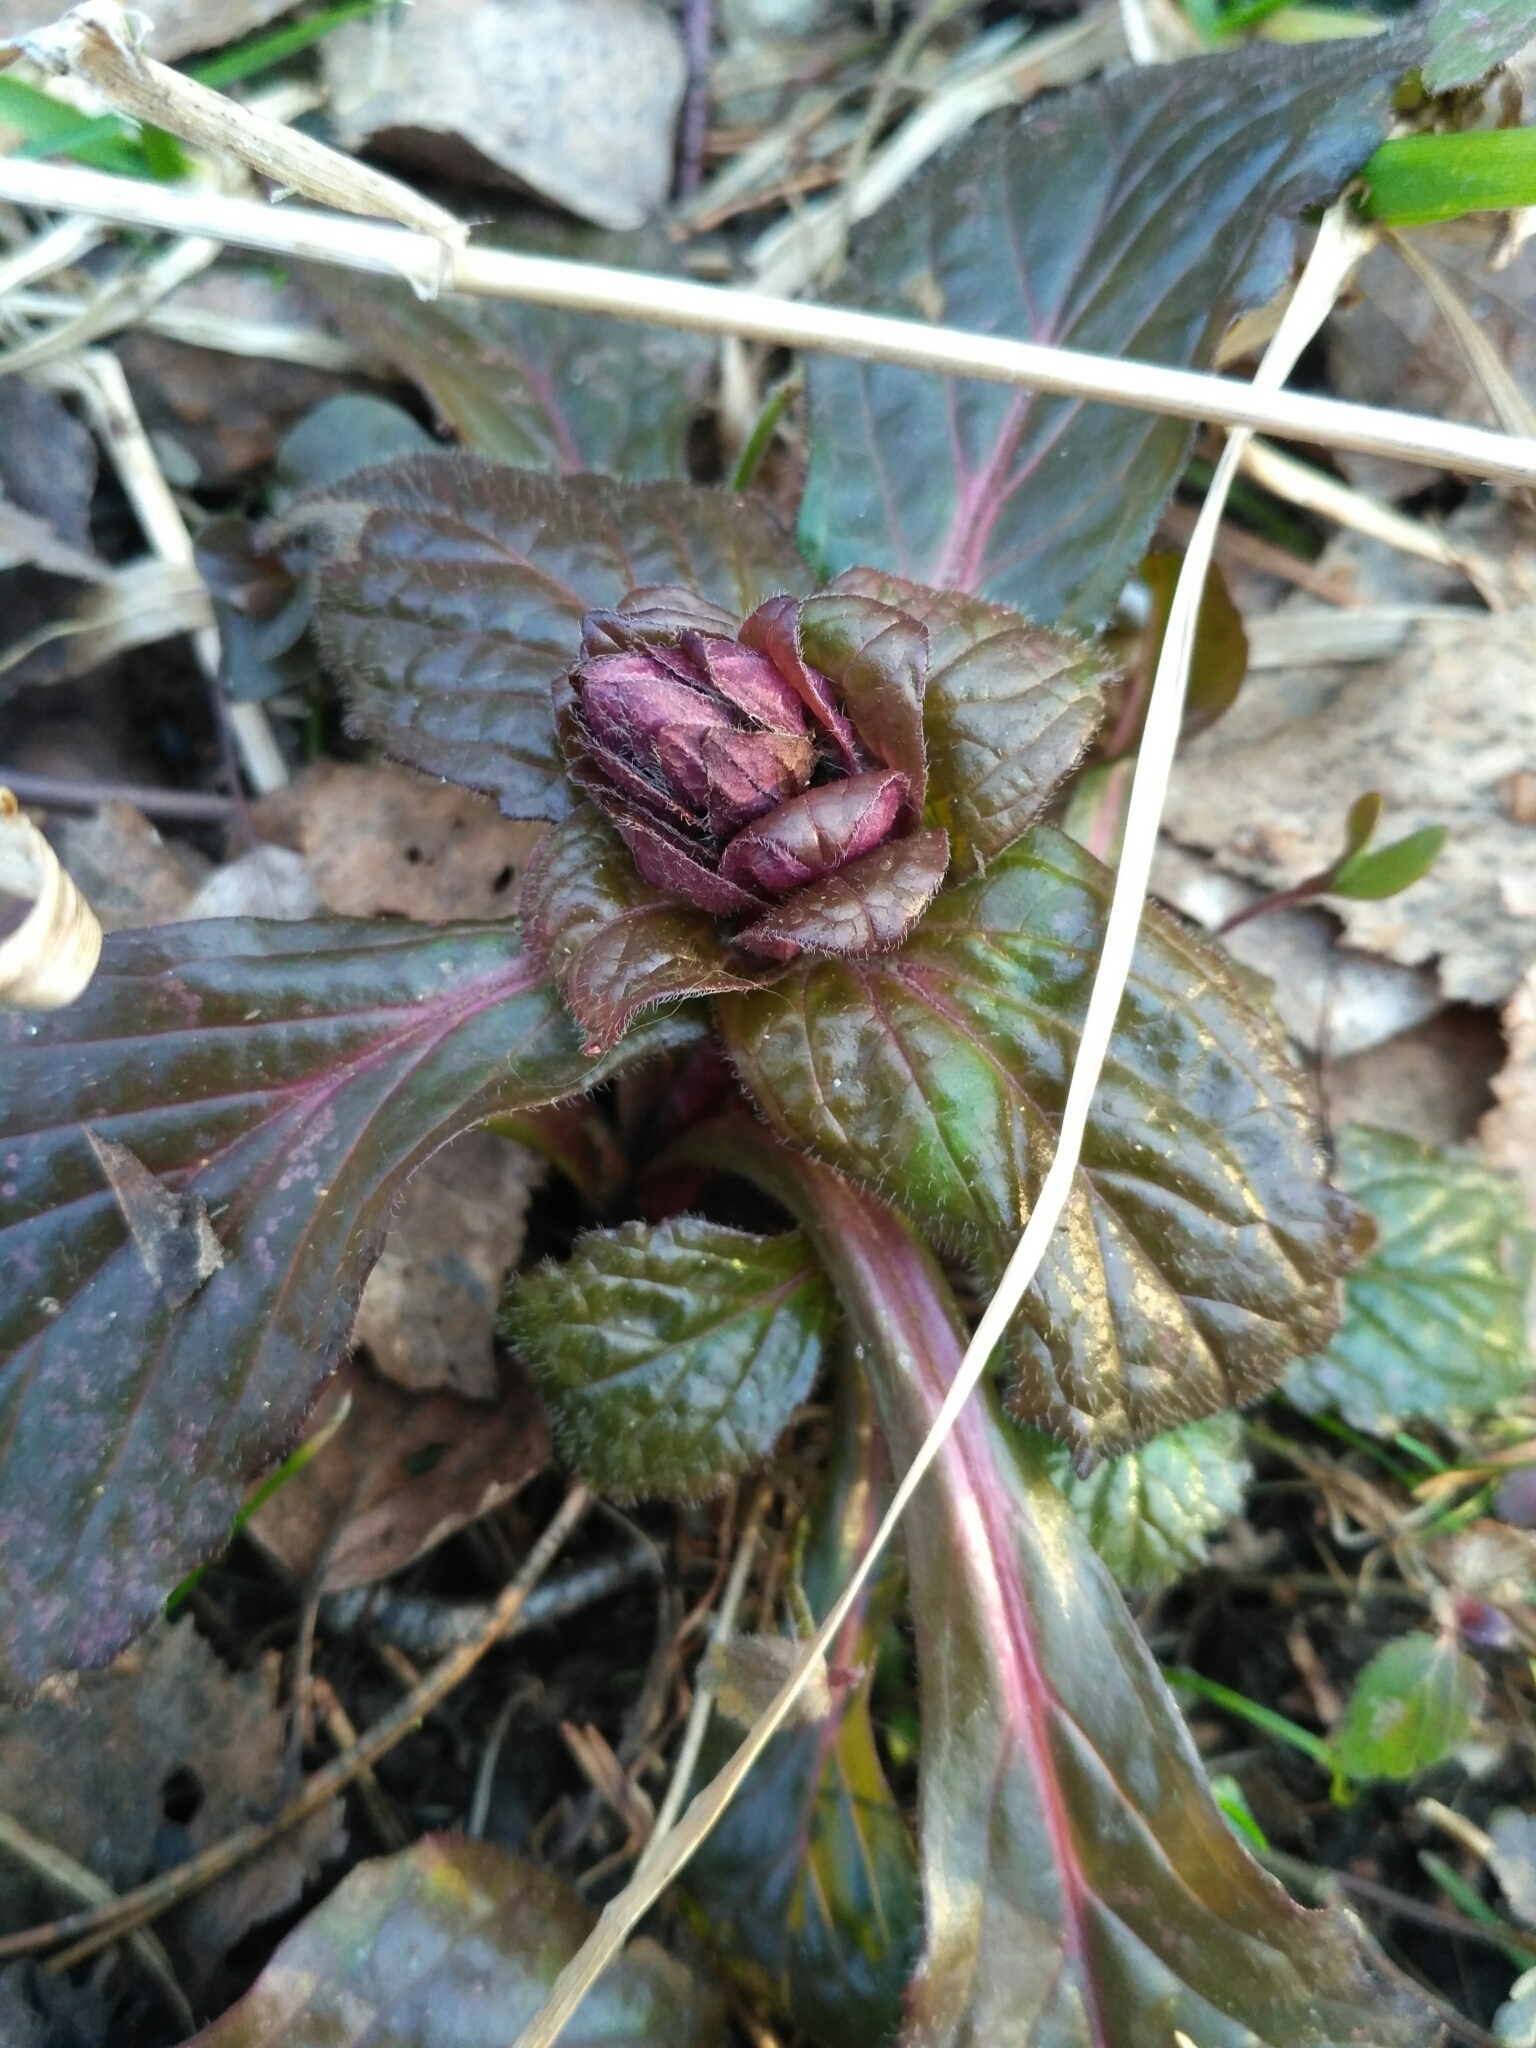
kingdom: Plantae
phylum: Tracheophyta
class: Magnoliopsida
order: Lamiales
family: Lamiaceae
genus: Ajuga
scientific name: Ajuga reptans
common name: Bugle
